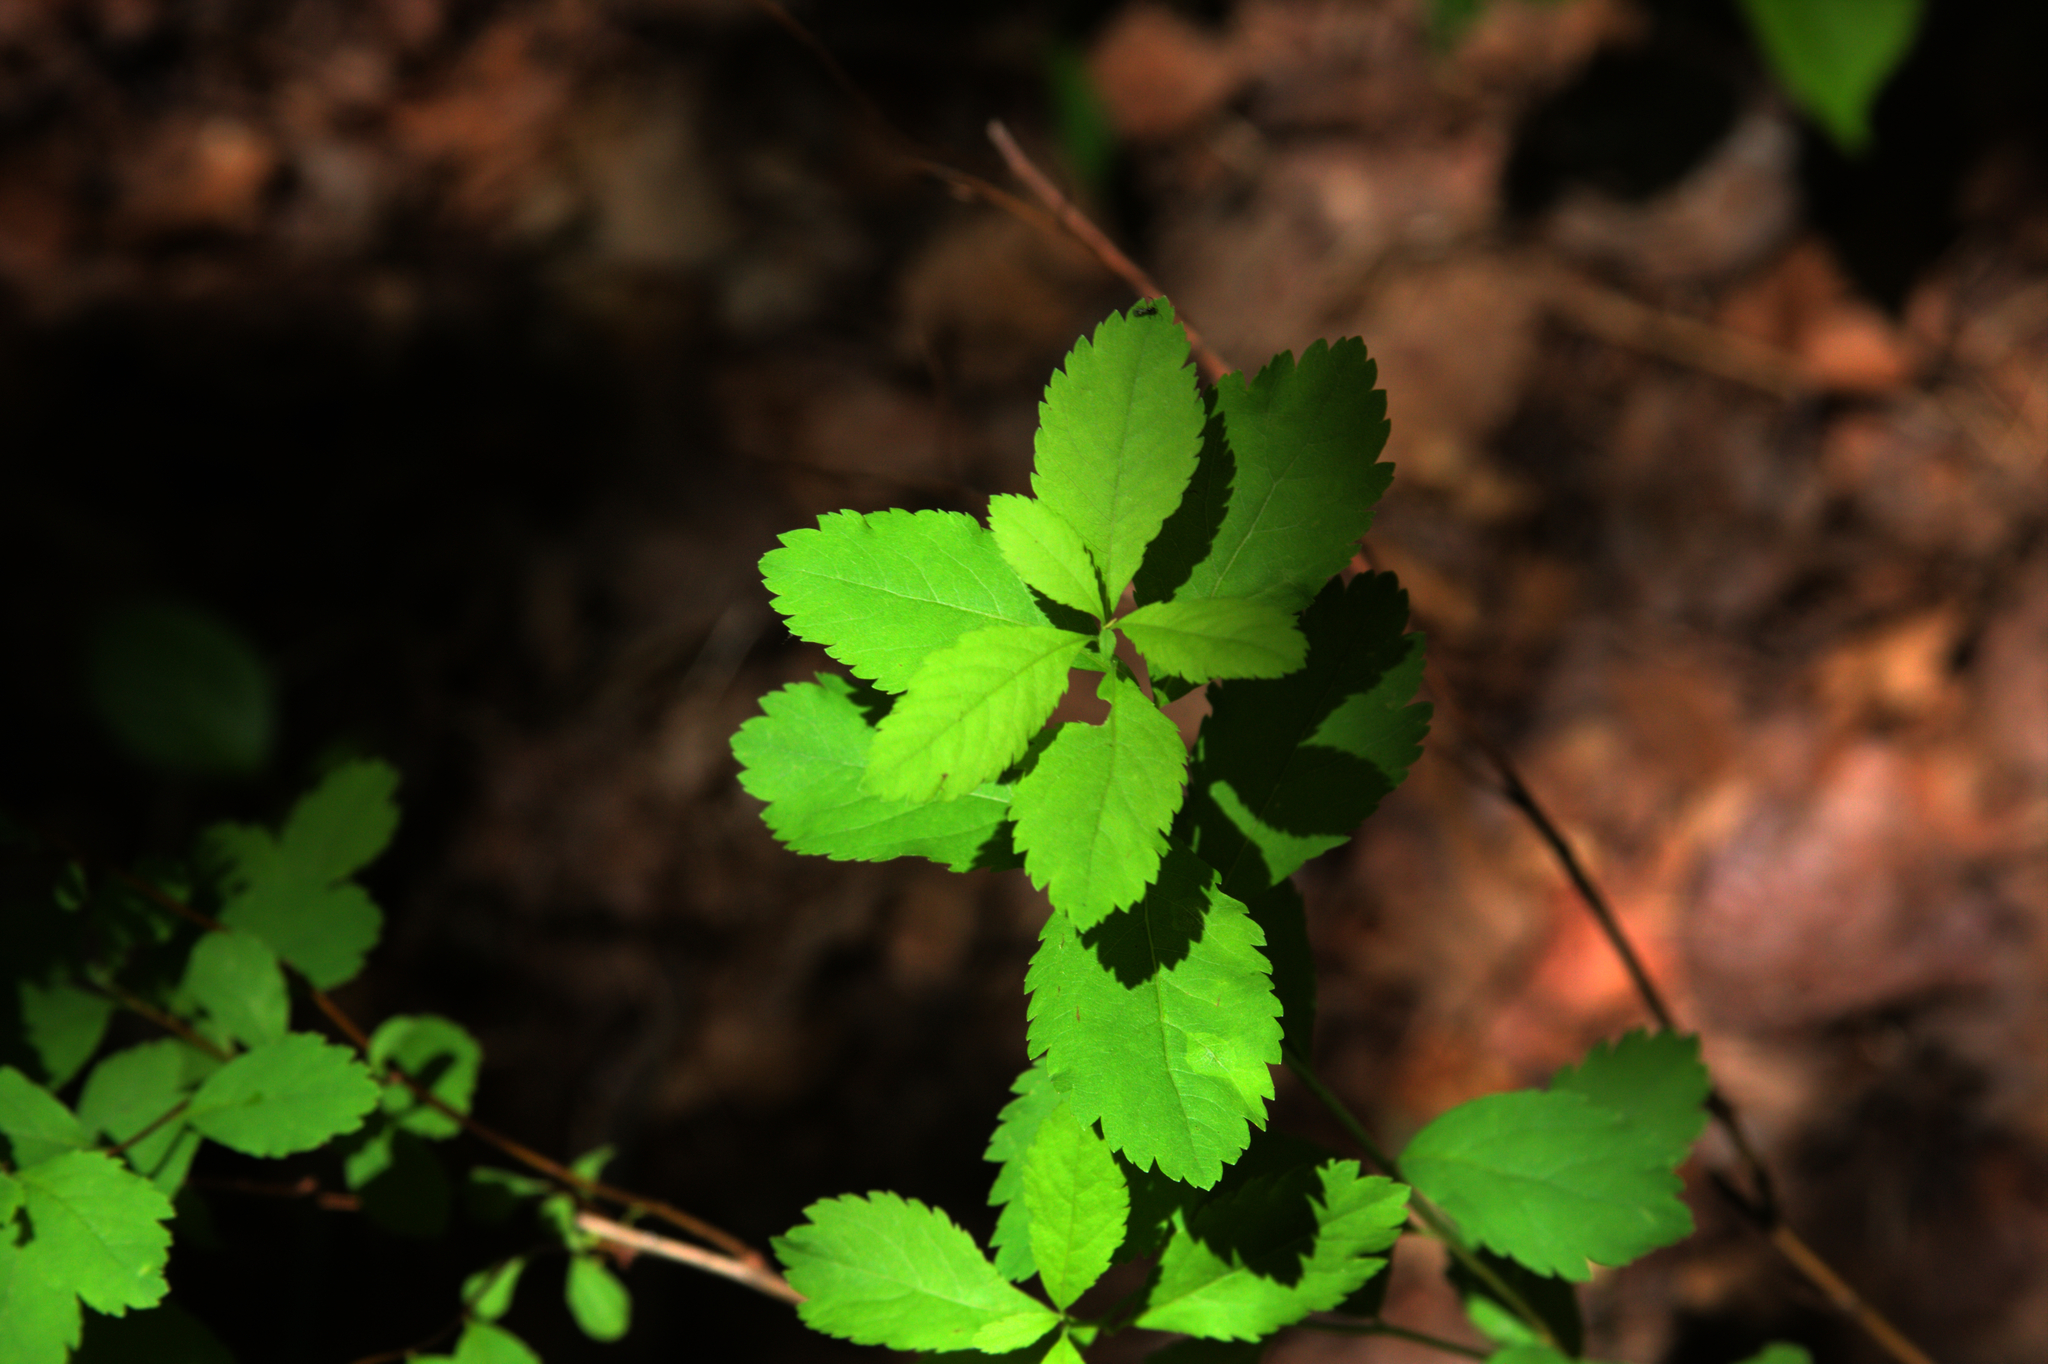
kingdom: Plantae
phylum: Tracheophyta
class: Magnoliopsida
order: Rosales
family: Rosaceae
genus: Spiraea
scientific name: Spiraea alba
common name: Pale bridewort
